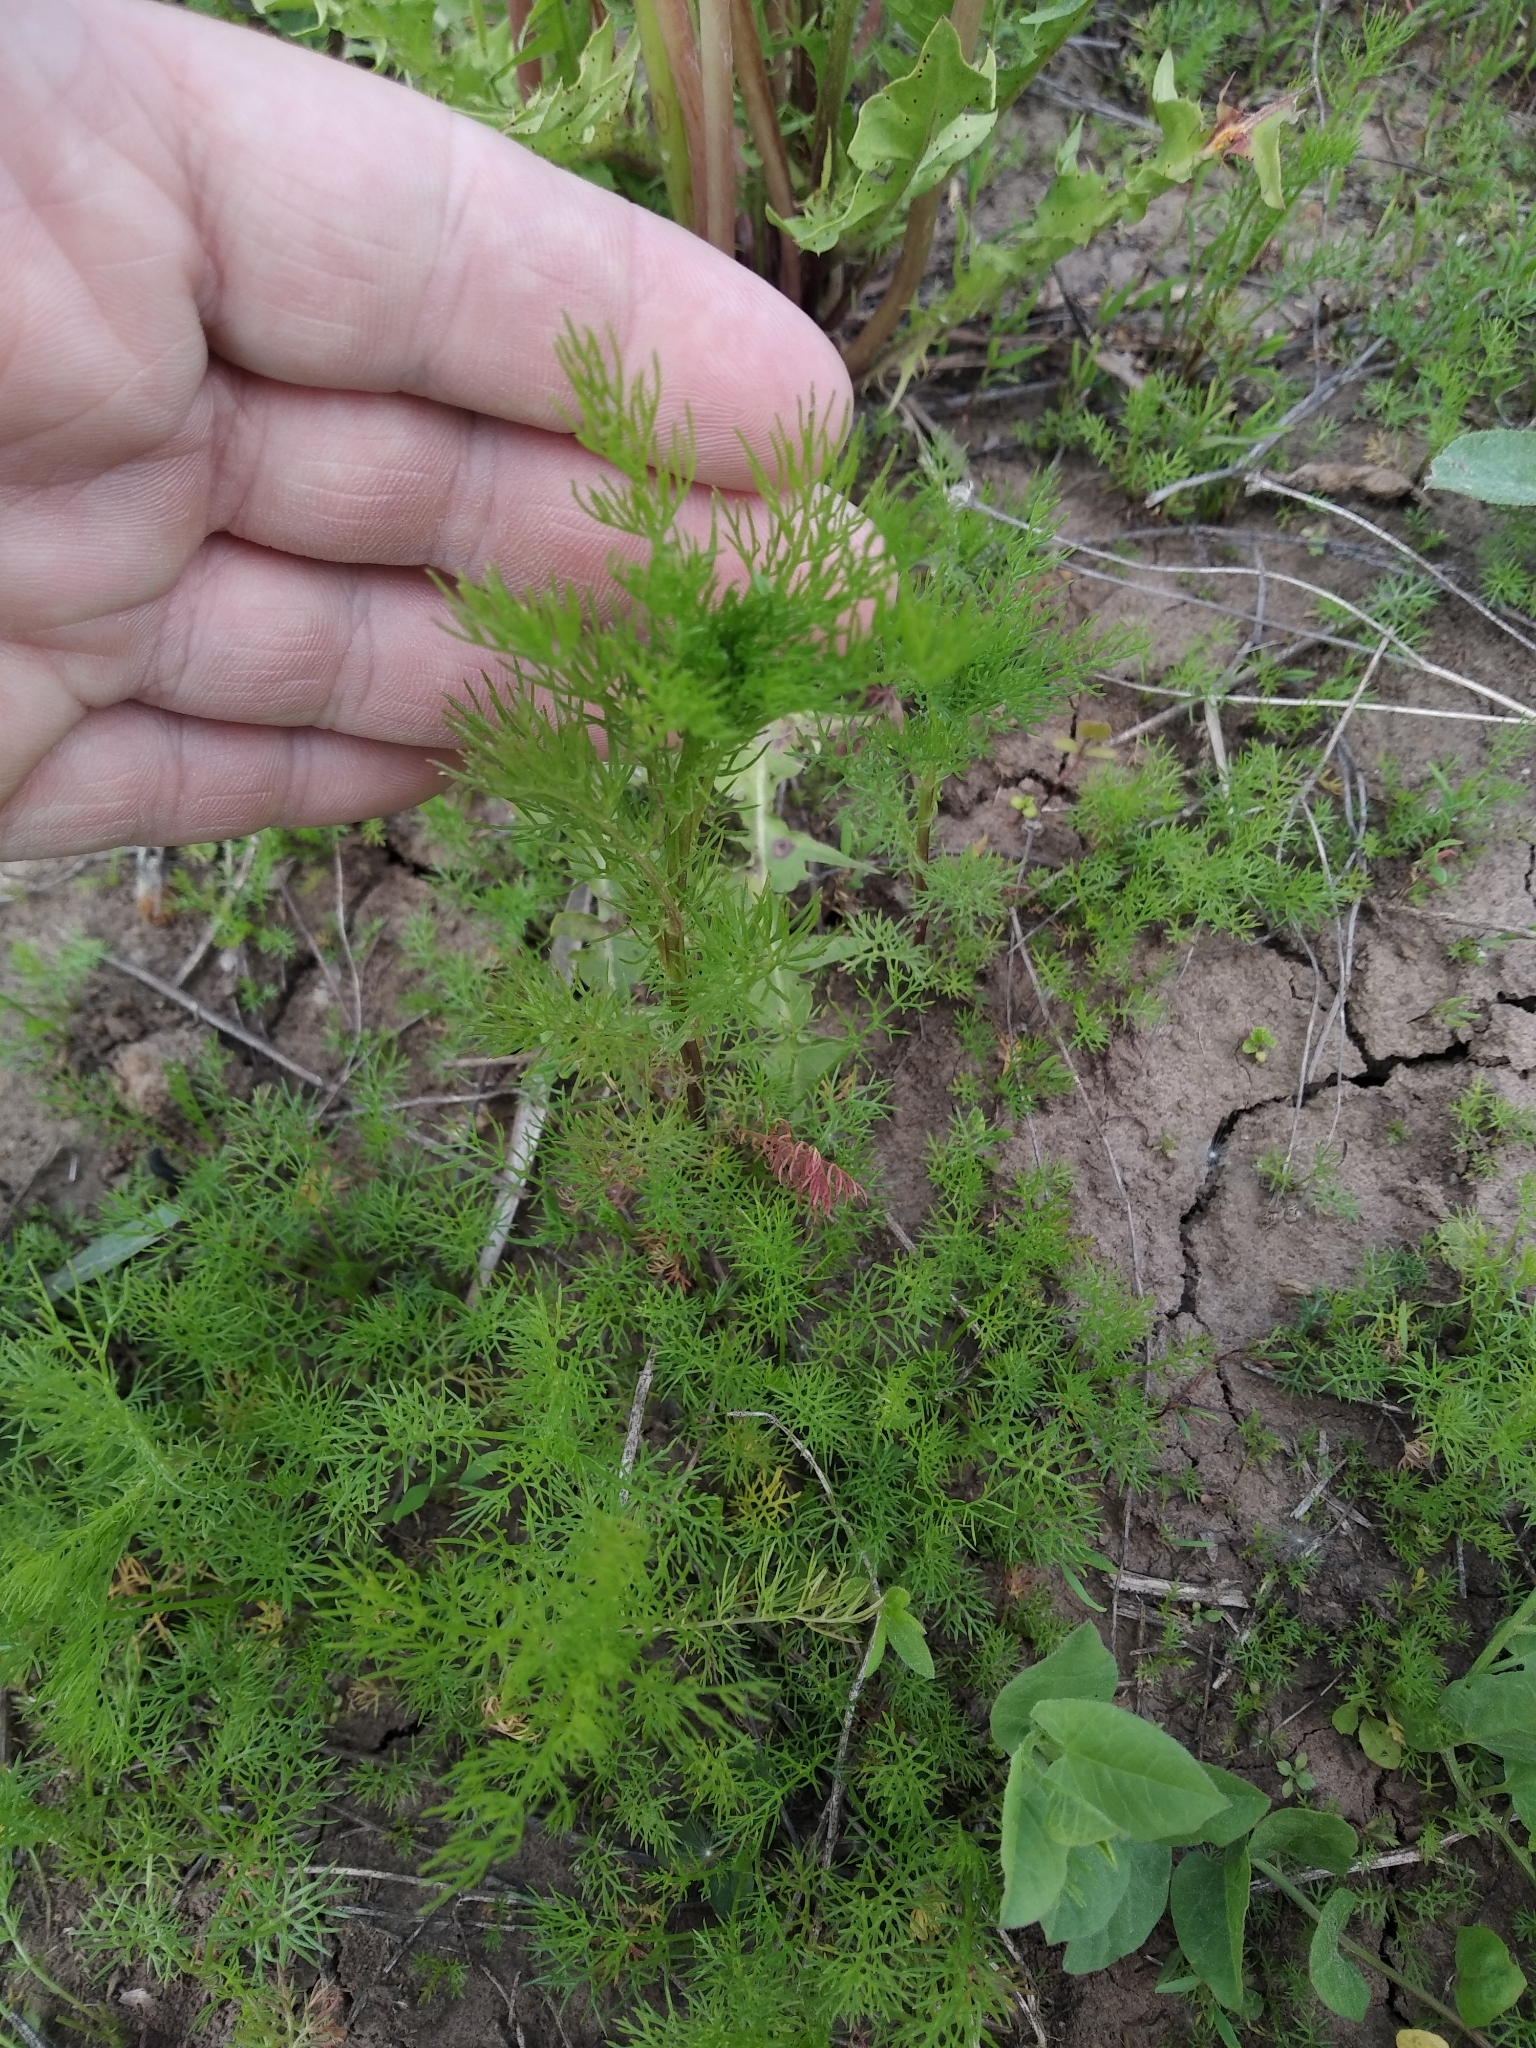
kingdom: Plantae
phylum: Tracheophyta
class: Magnoliopsida
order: Asterales
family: Asteraceae
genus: Tripleurospermum
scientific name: Tripleurospermum inodorum
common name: Scentless mayweed
